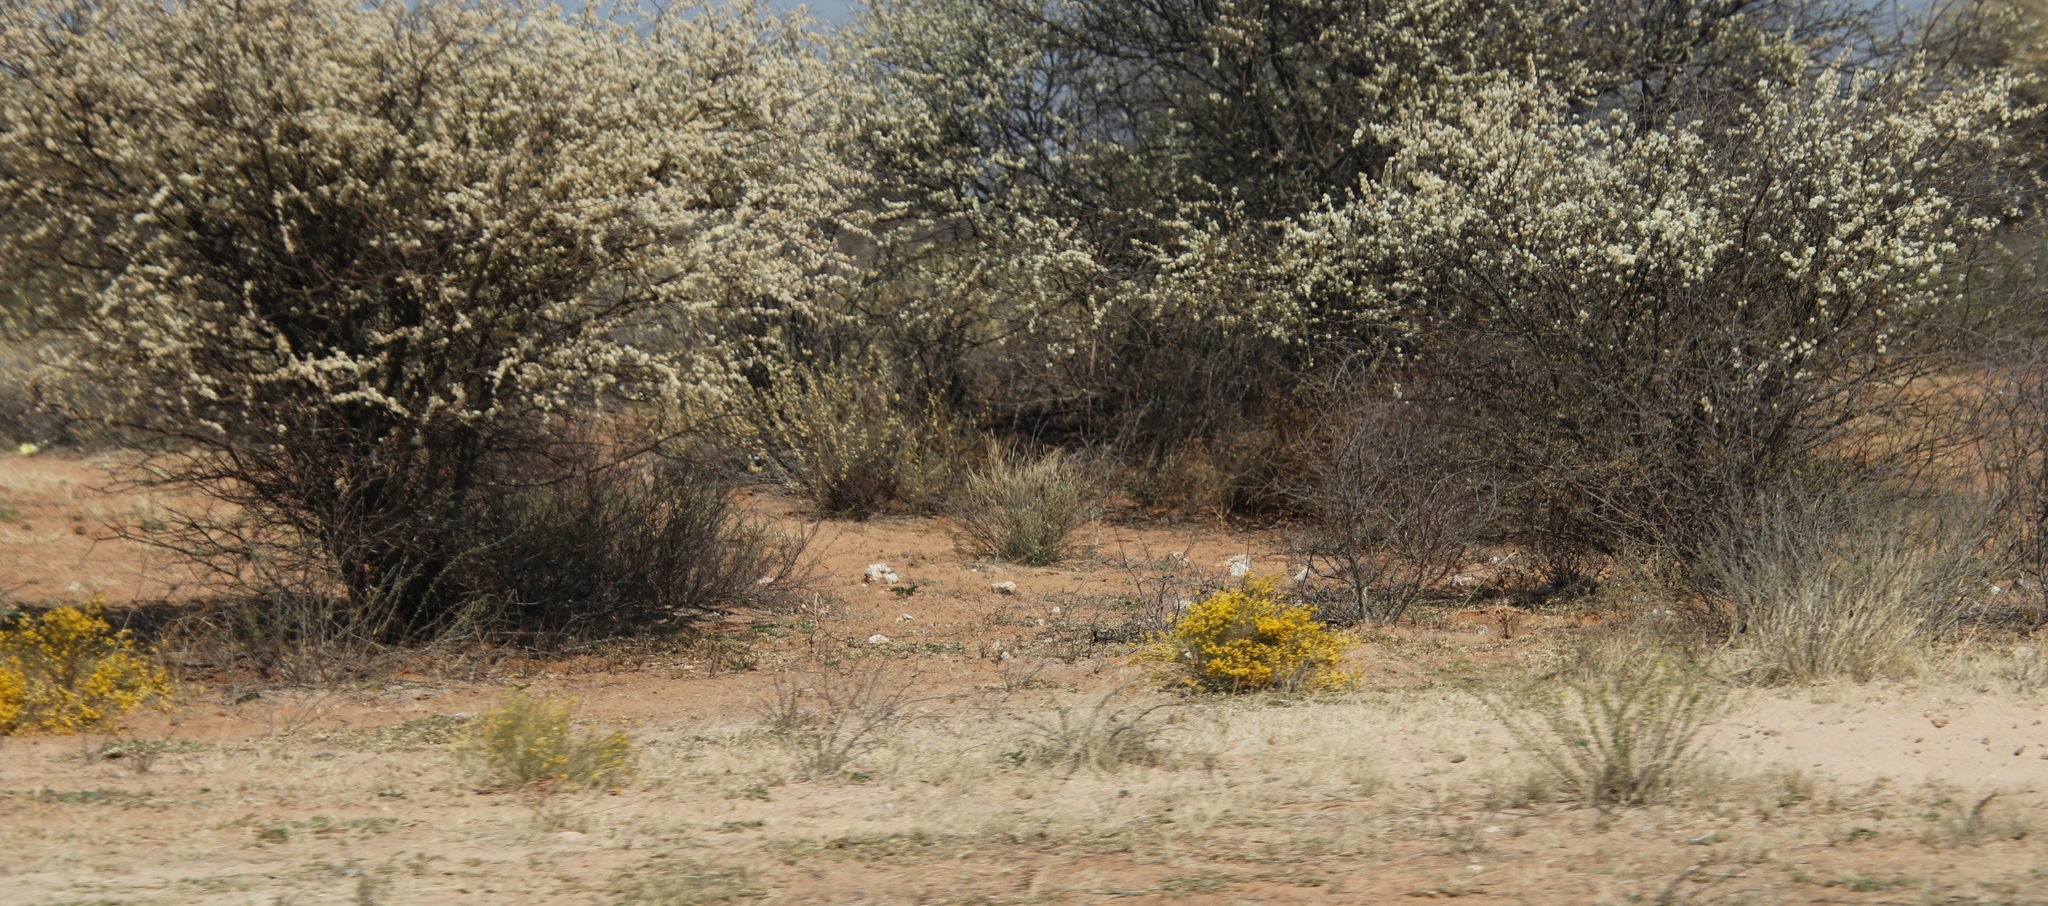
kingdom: Plantae
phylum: Tracheophyta
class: Magnoliopsida
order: Malvales
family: Thymelaeaceae
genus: Gnidia
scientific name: Gnidia polycephala
